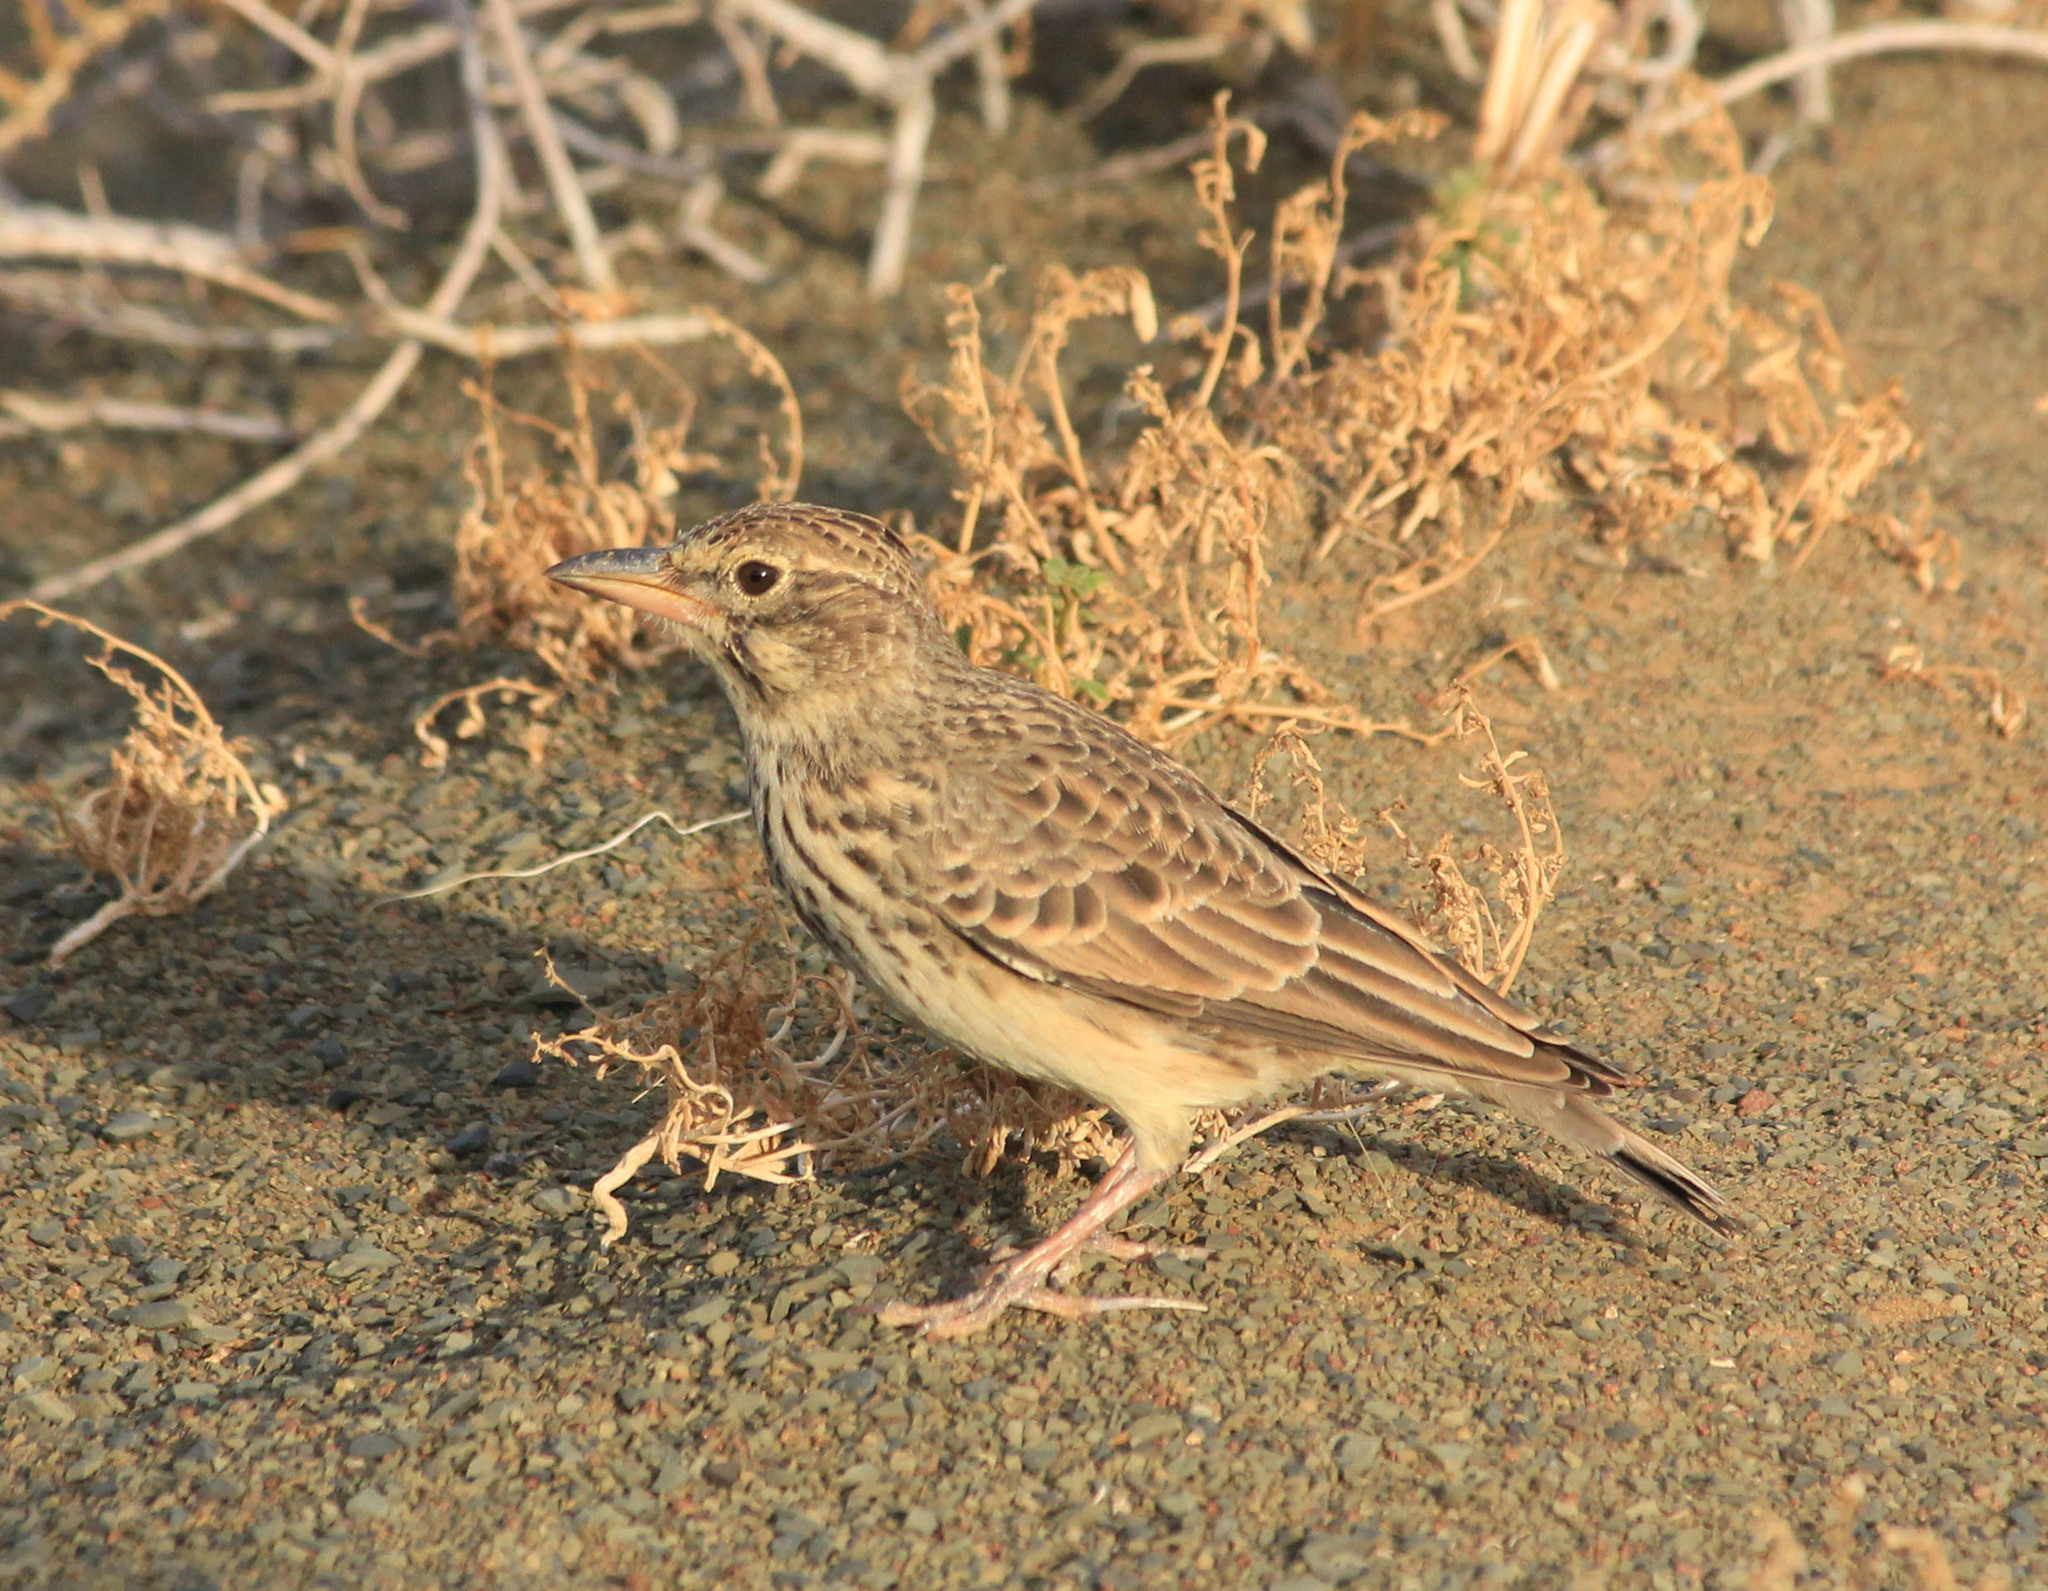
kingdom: Animalia
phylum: Chordata
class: Aves
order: Passeriformes
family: Alaudidae
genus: Galerida
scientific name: Galerida magnirostris
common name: Large-billed lark
